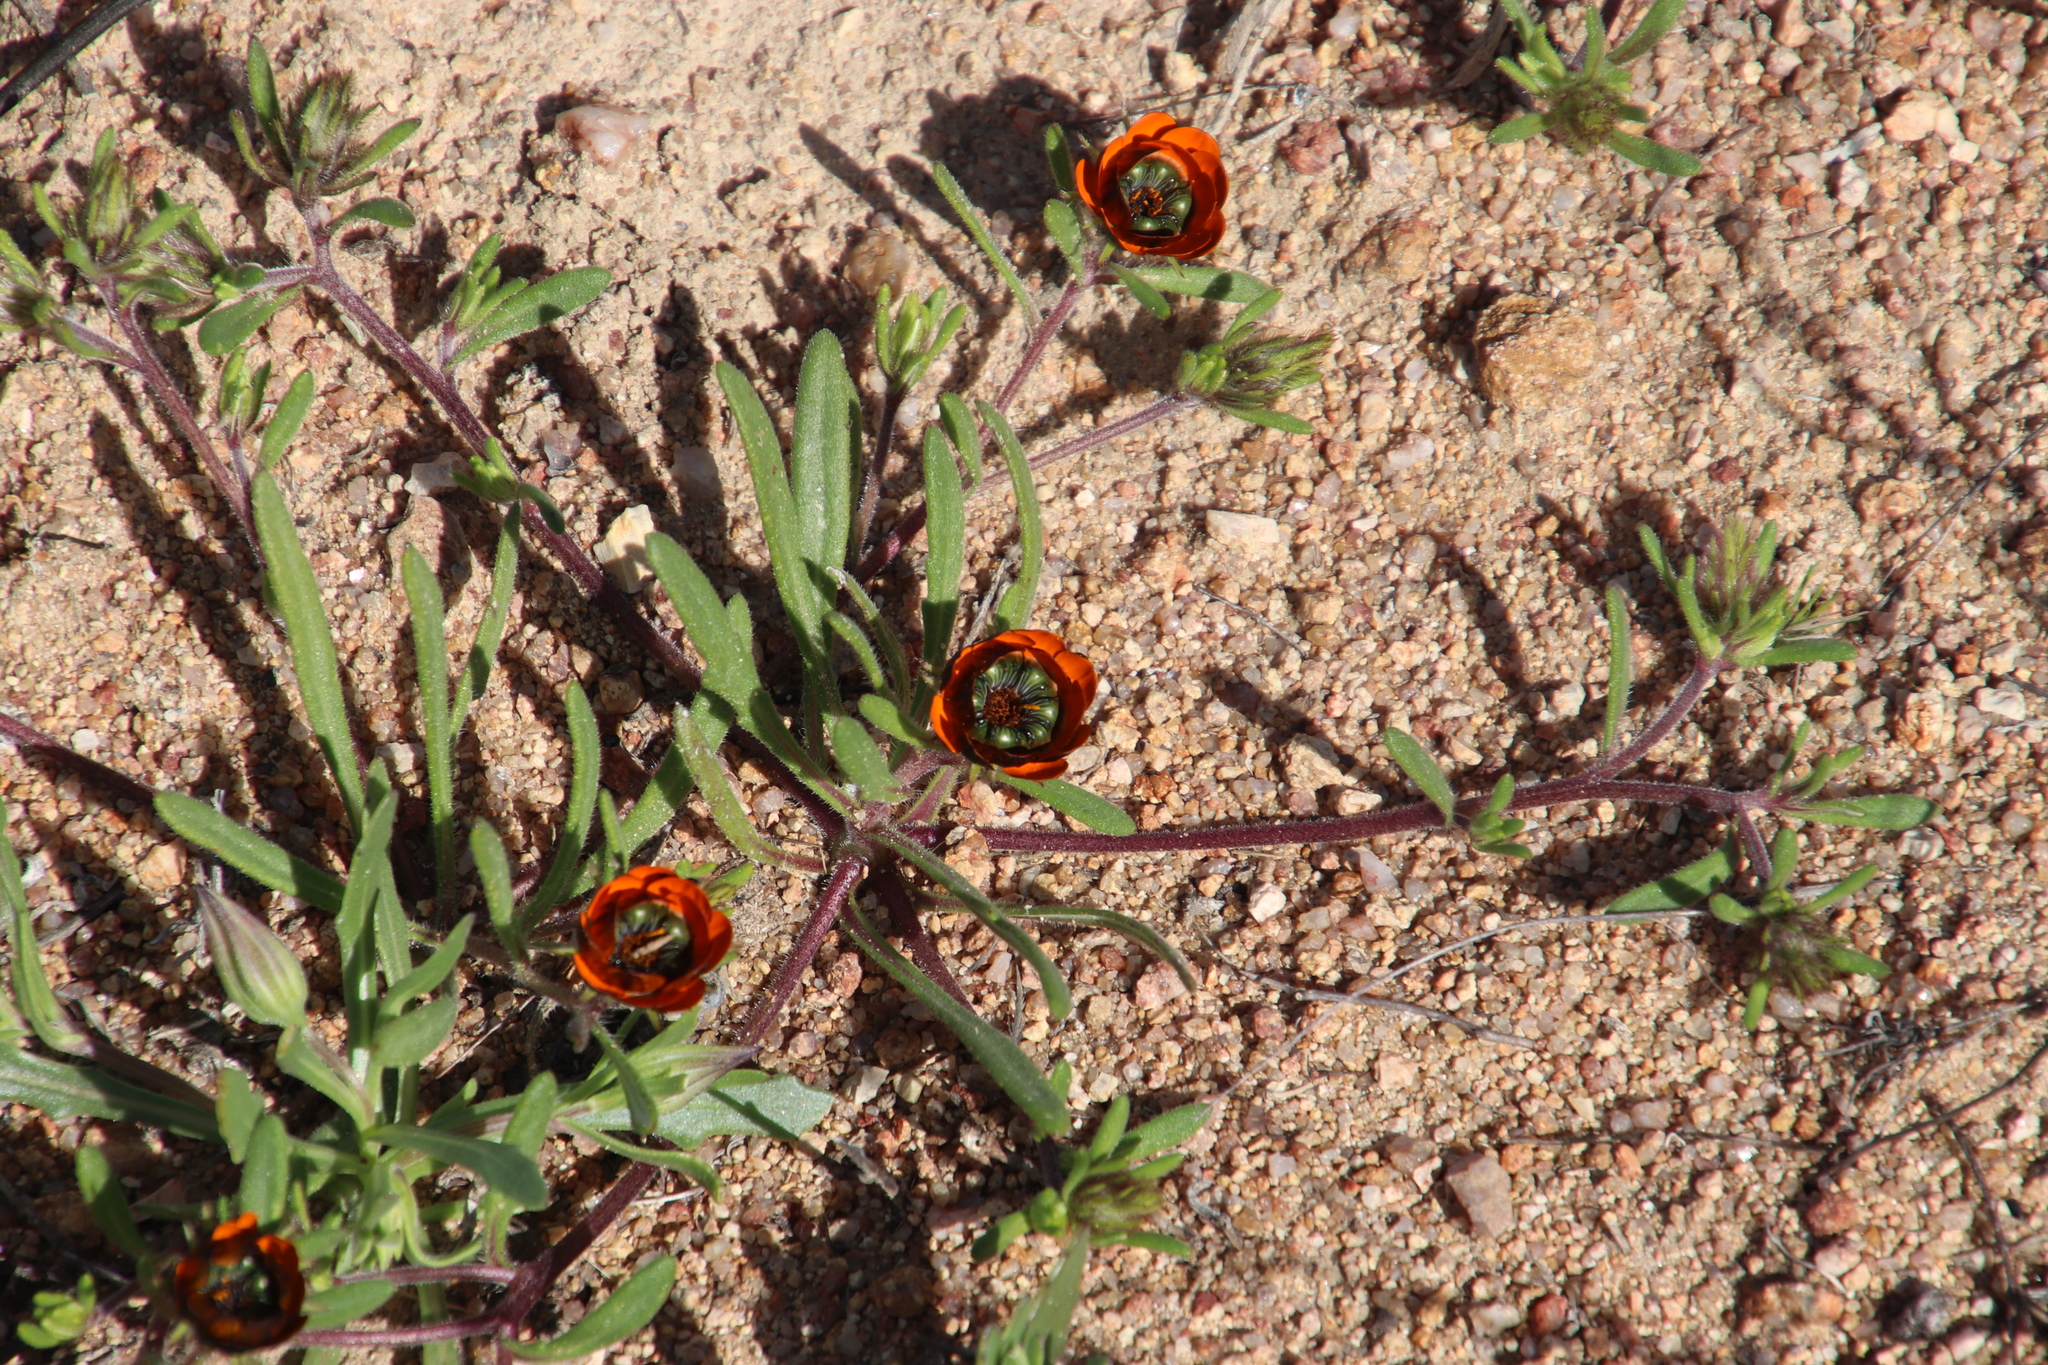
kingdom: Plantae
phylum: Tracheophyta
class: Magnoliopsida
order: Asterales
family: Asteraceae
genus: Gorteria
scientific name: Gorteria diffusa
